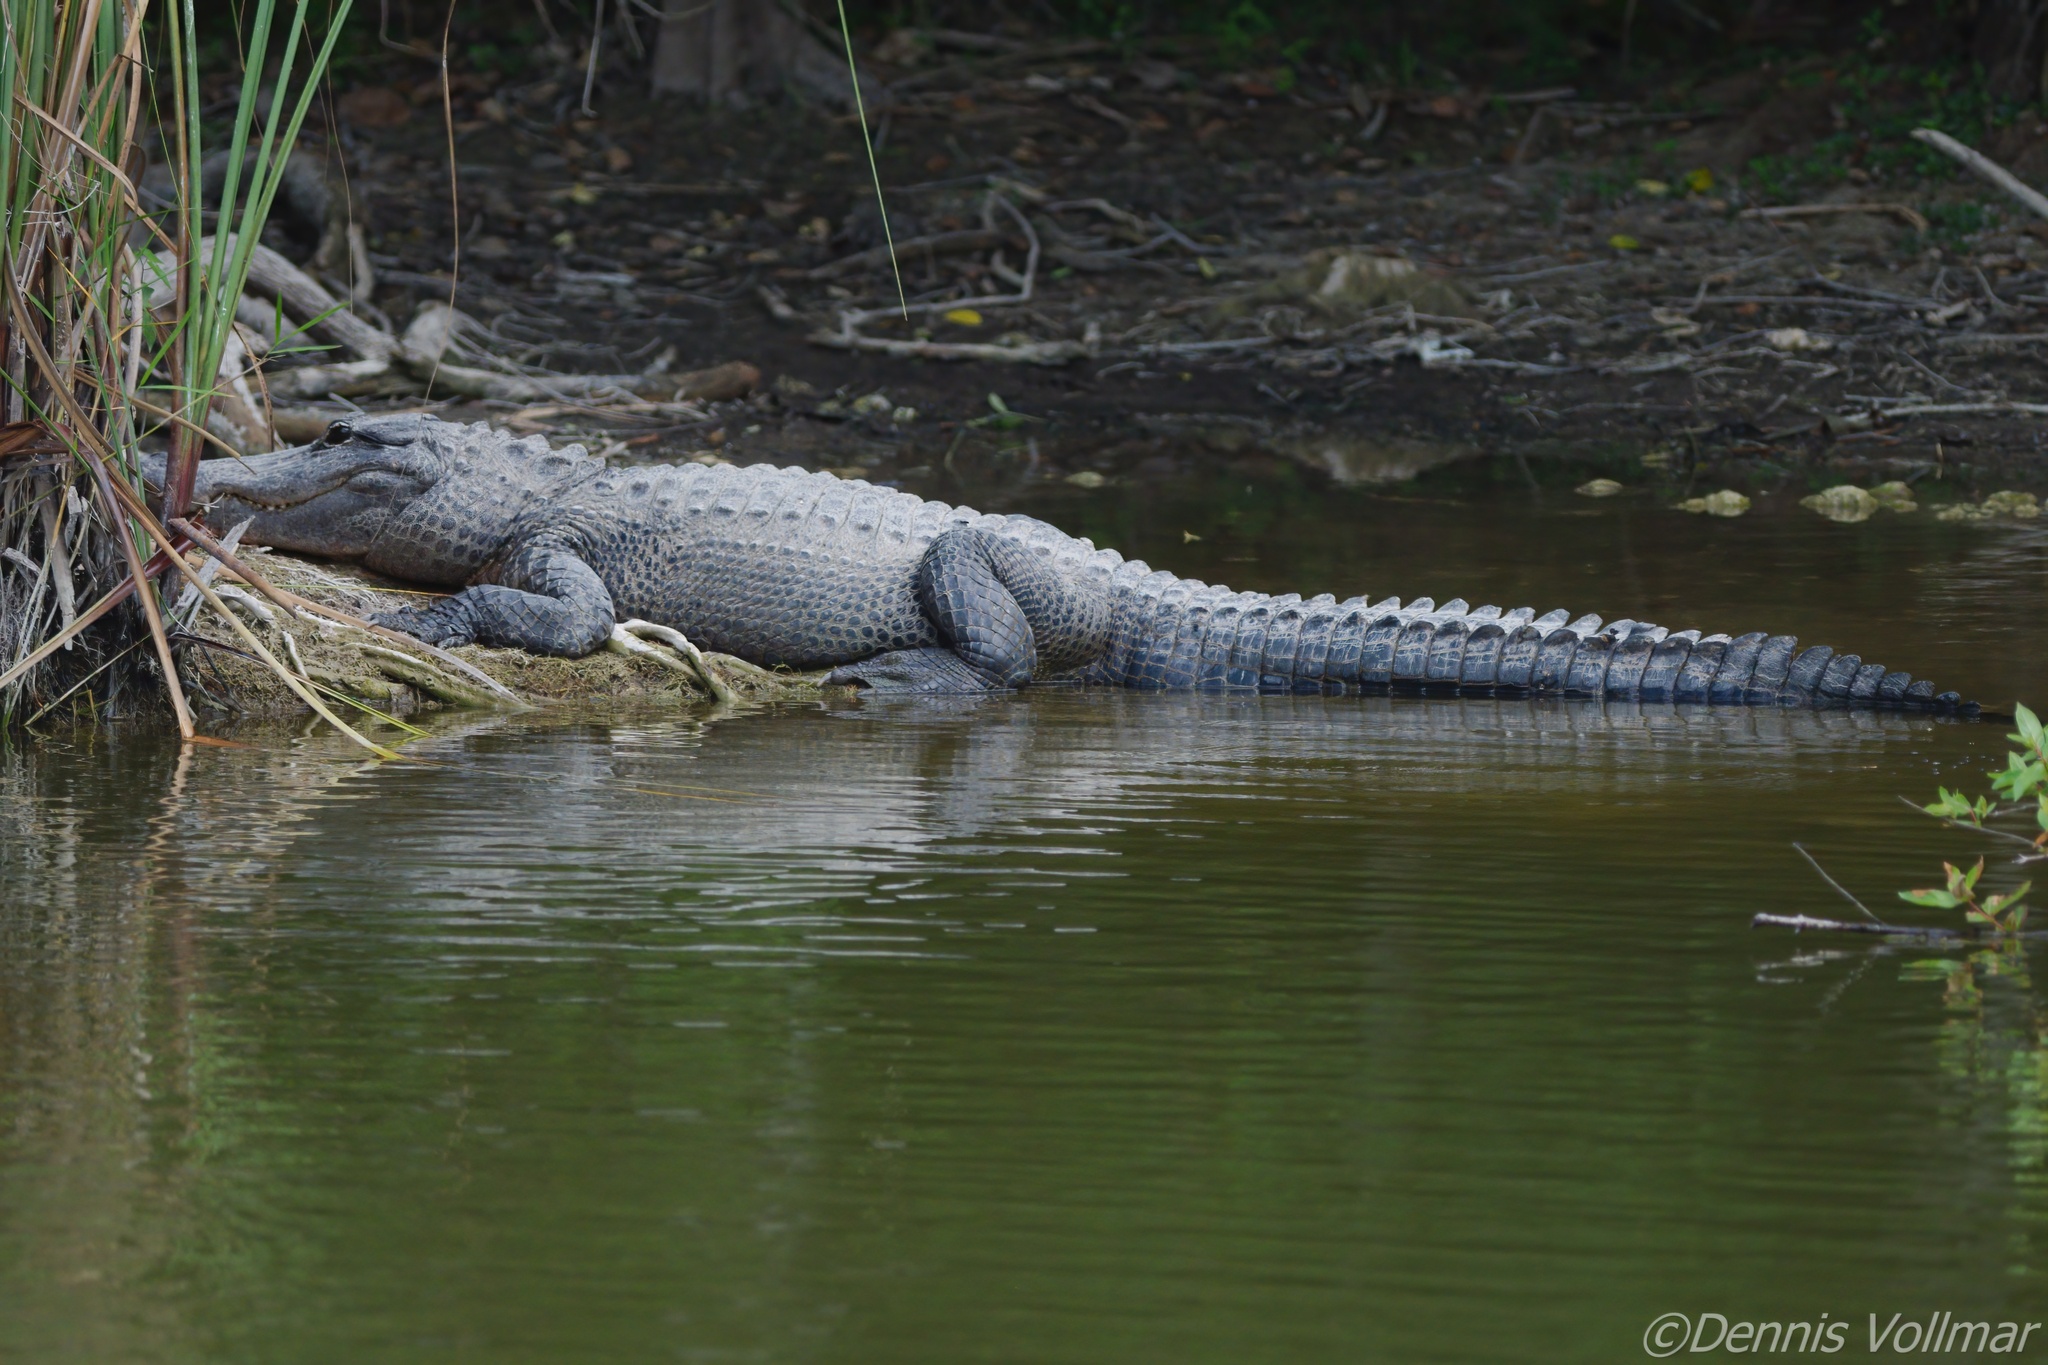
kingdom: Animalia
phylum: Chordata
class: Crocodylia
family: Alligatoridae
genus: Alligator
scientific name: Alligator mississippiensis
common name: American alligator
